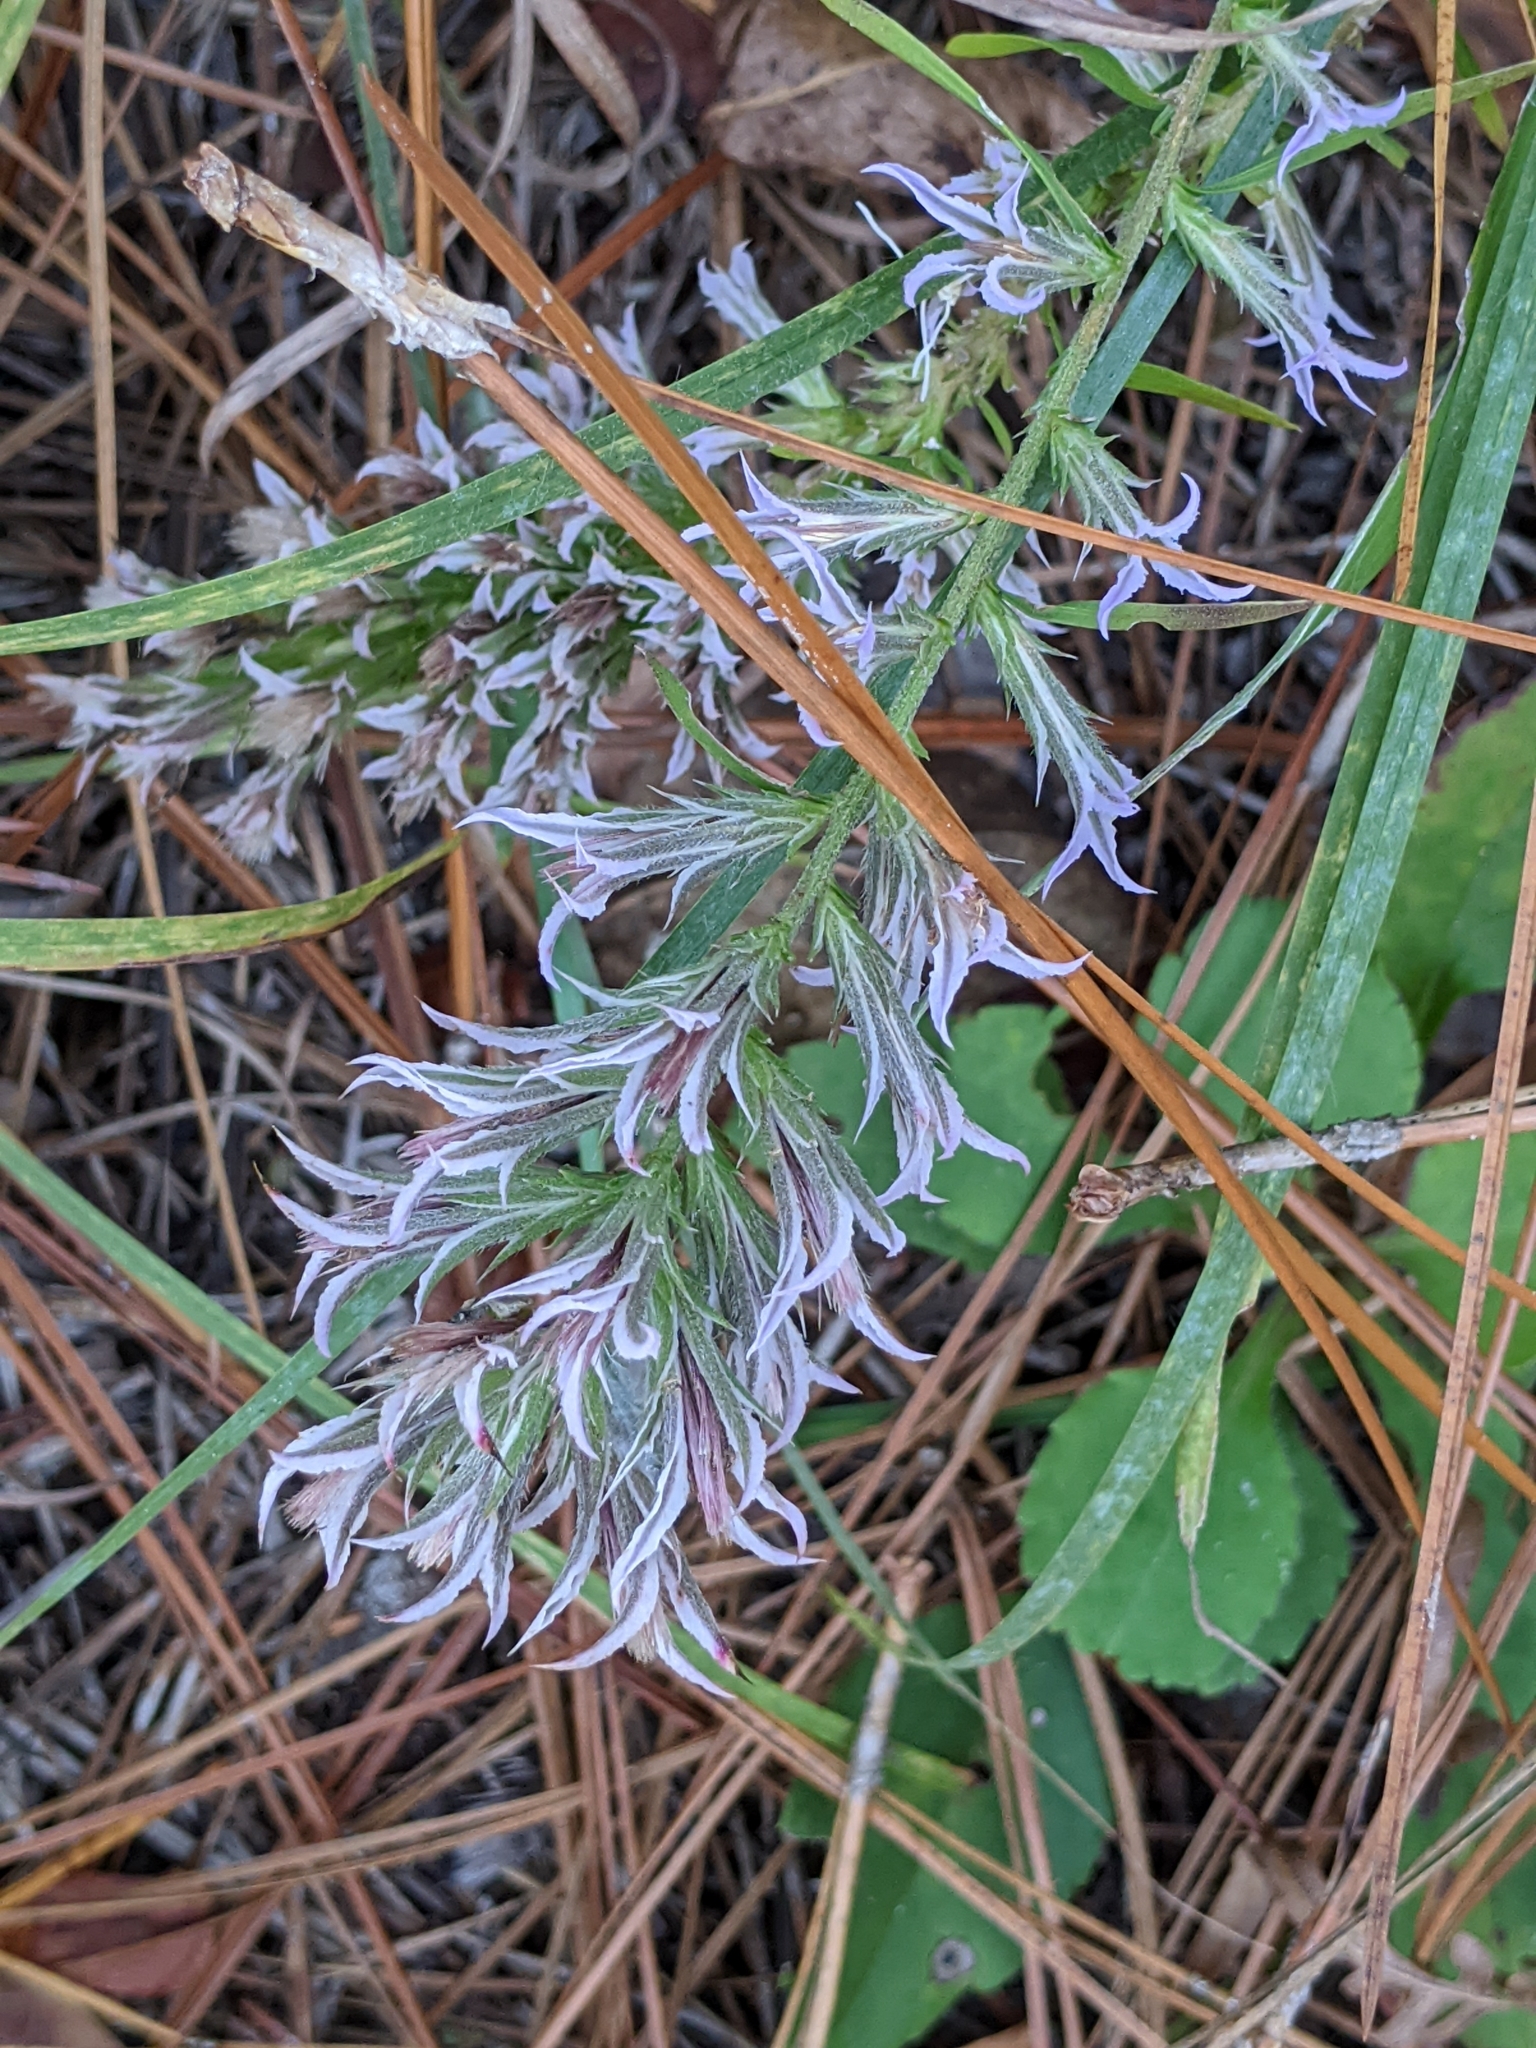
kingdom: Plantae
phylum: Tracheophyta
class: Magnoliopsida
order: Asterales
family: Asteraceae
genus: Liatris
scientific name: Liatris hesperelegans
